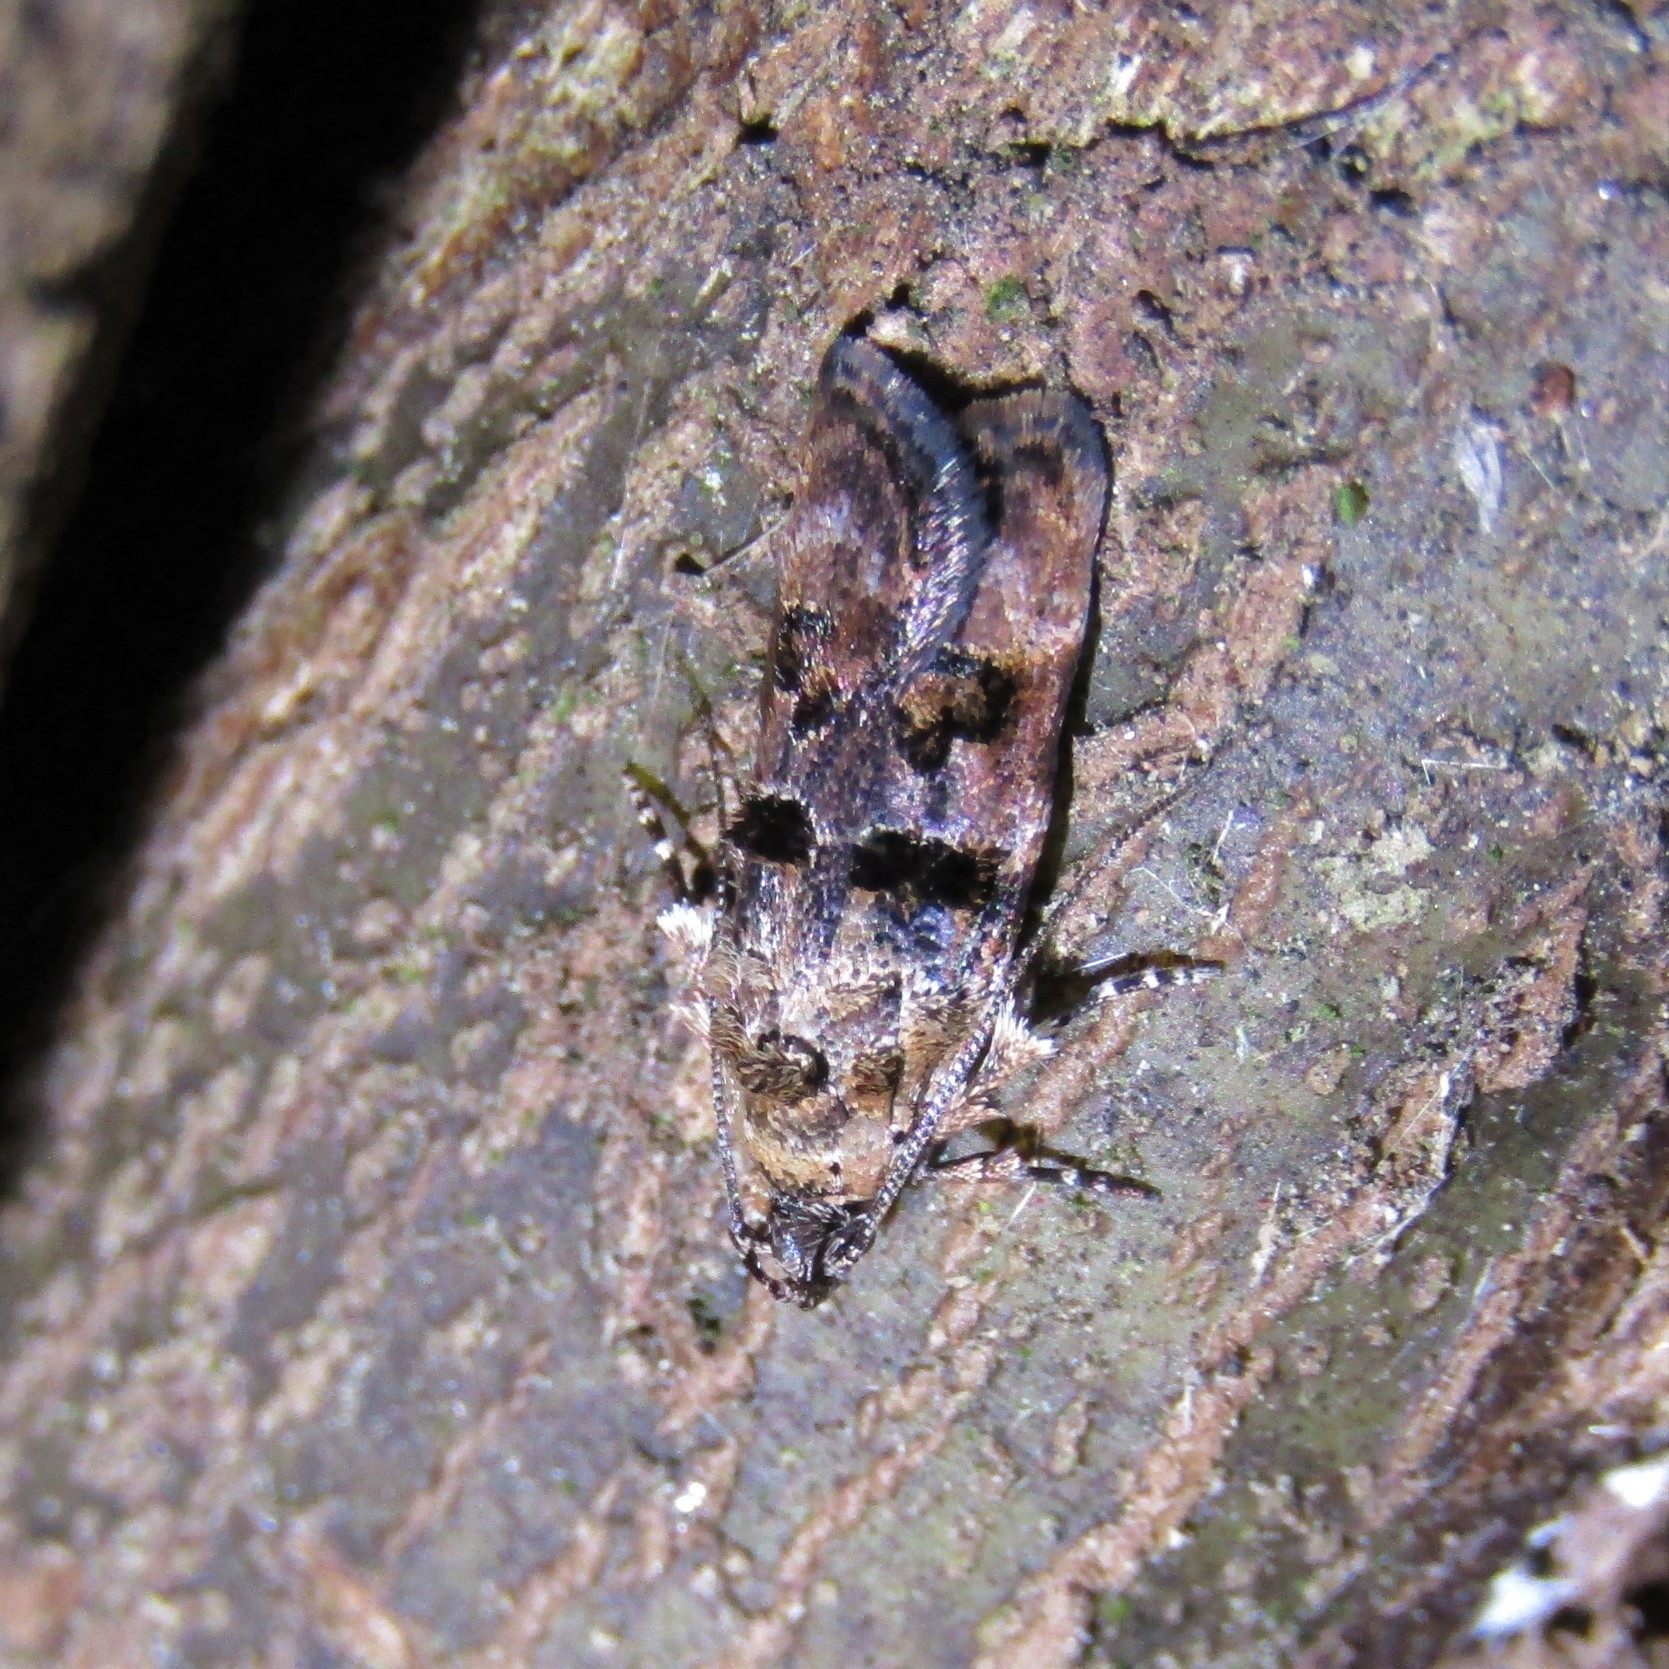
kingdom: Animalia
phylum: Arthropoda
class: Insecta
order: Lepidoptera
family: Oecophoridae
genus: Izatha
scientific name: Izatha metadelta
